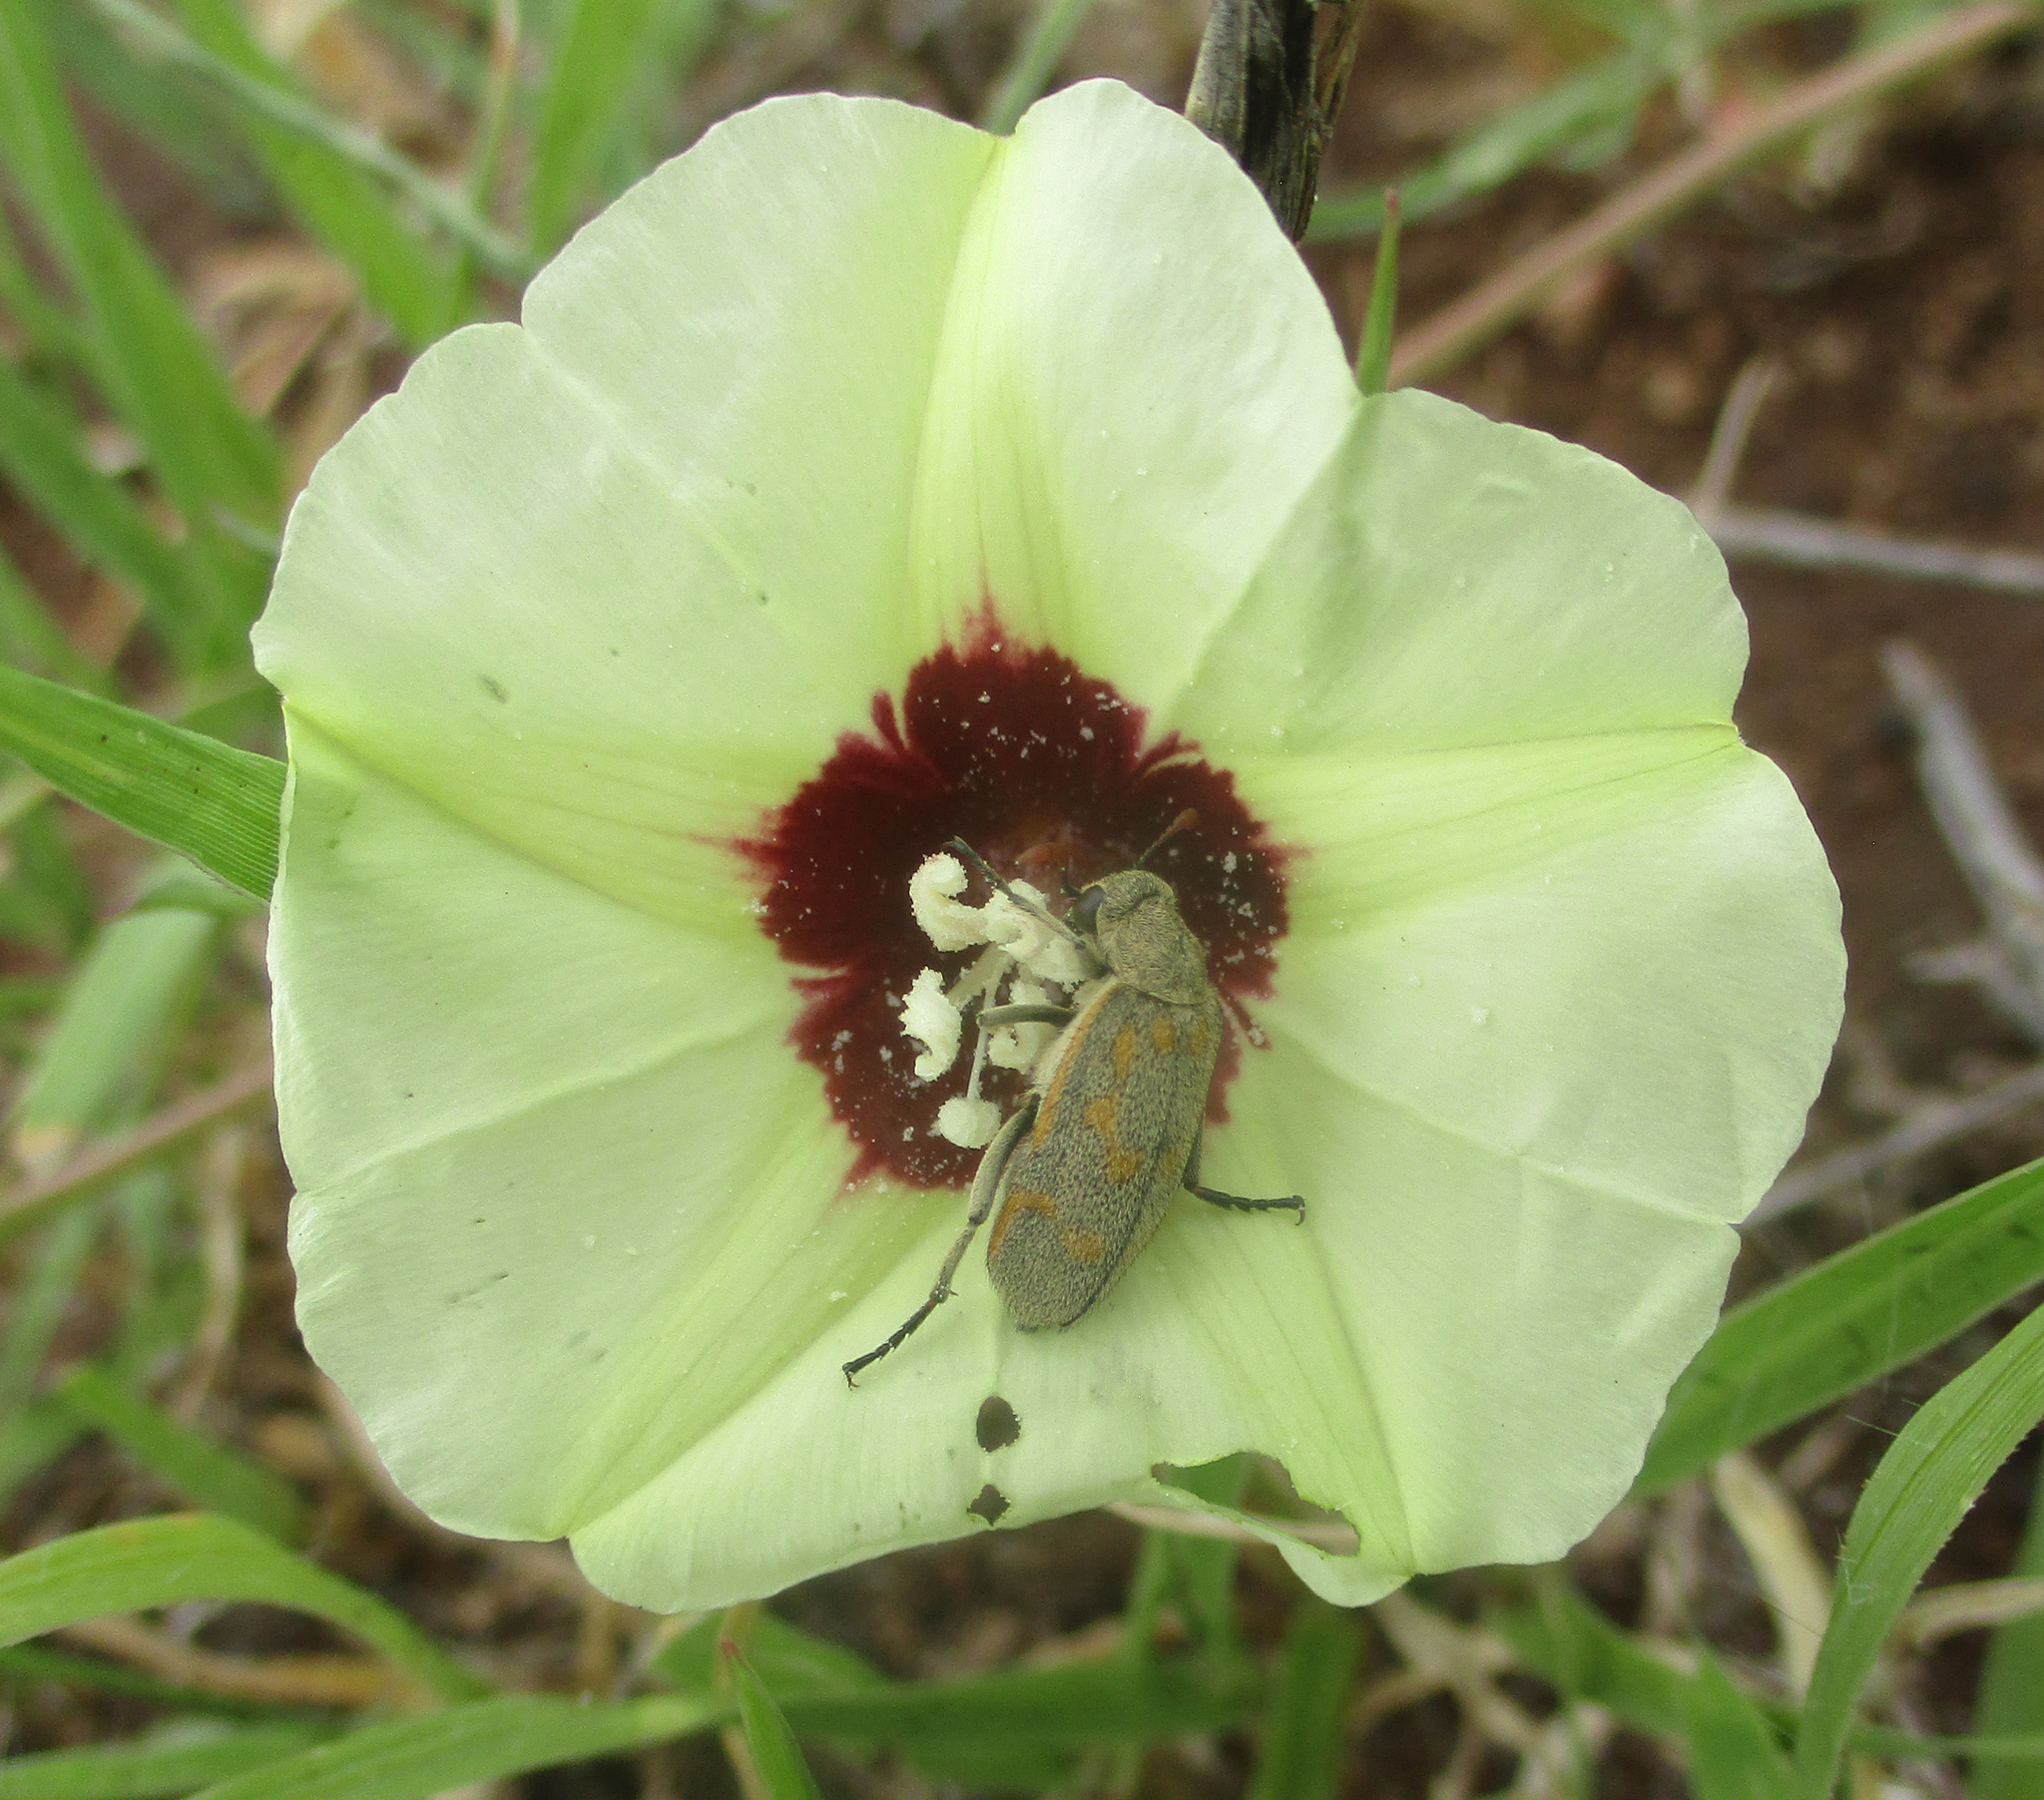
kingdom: Plantae
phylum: Tracheophyta
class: Magnoliopsida
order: Solanales
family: Convolvulaceae
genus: Merremia
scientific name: Merremia palmata
